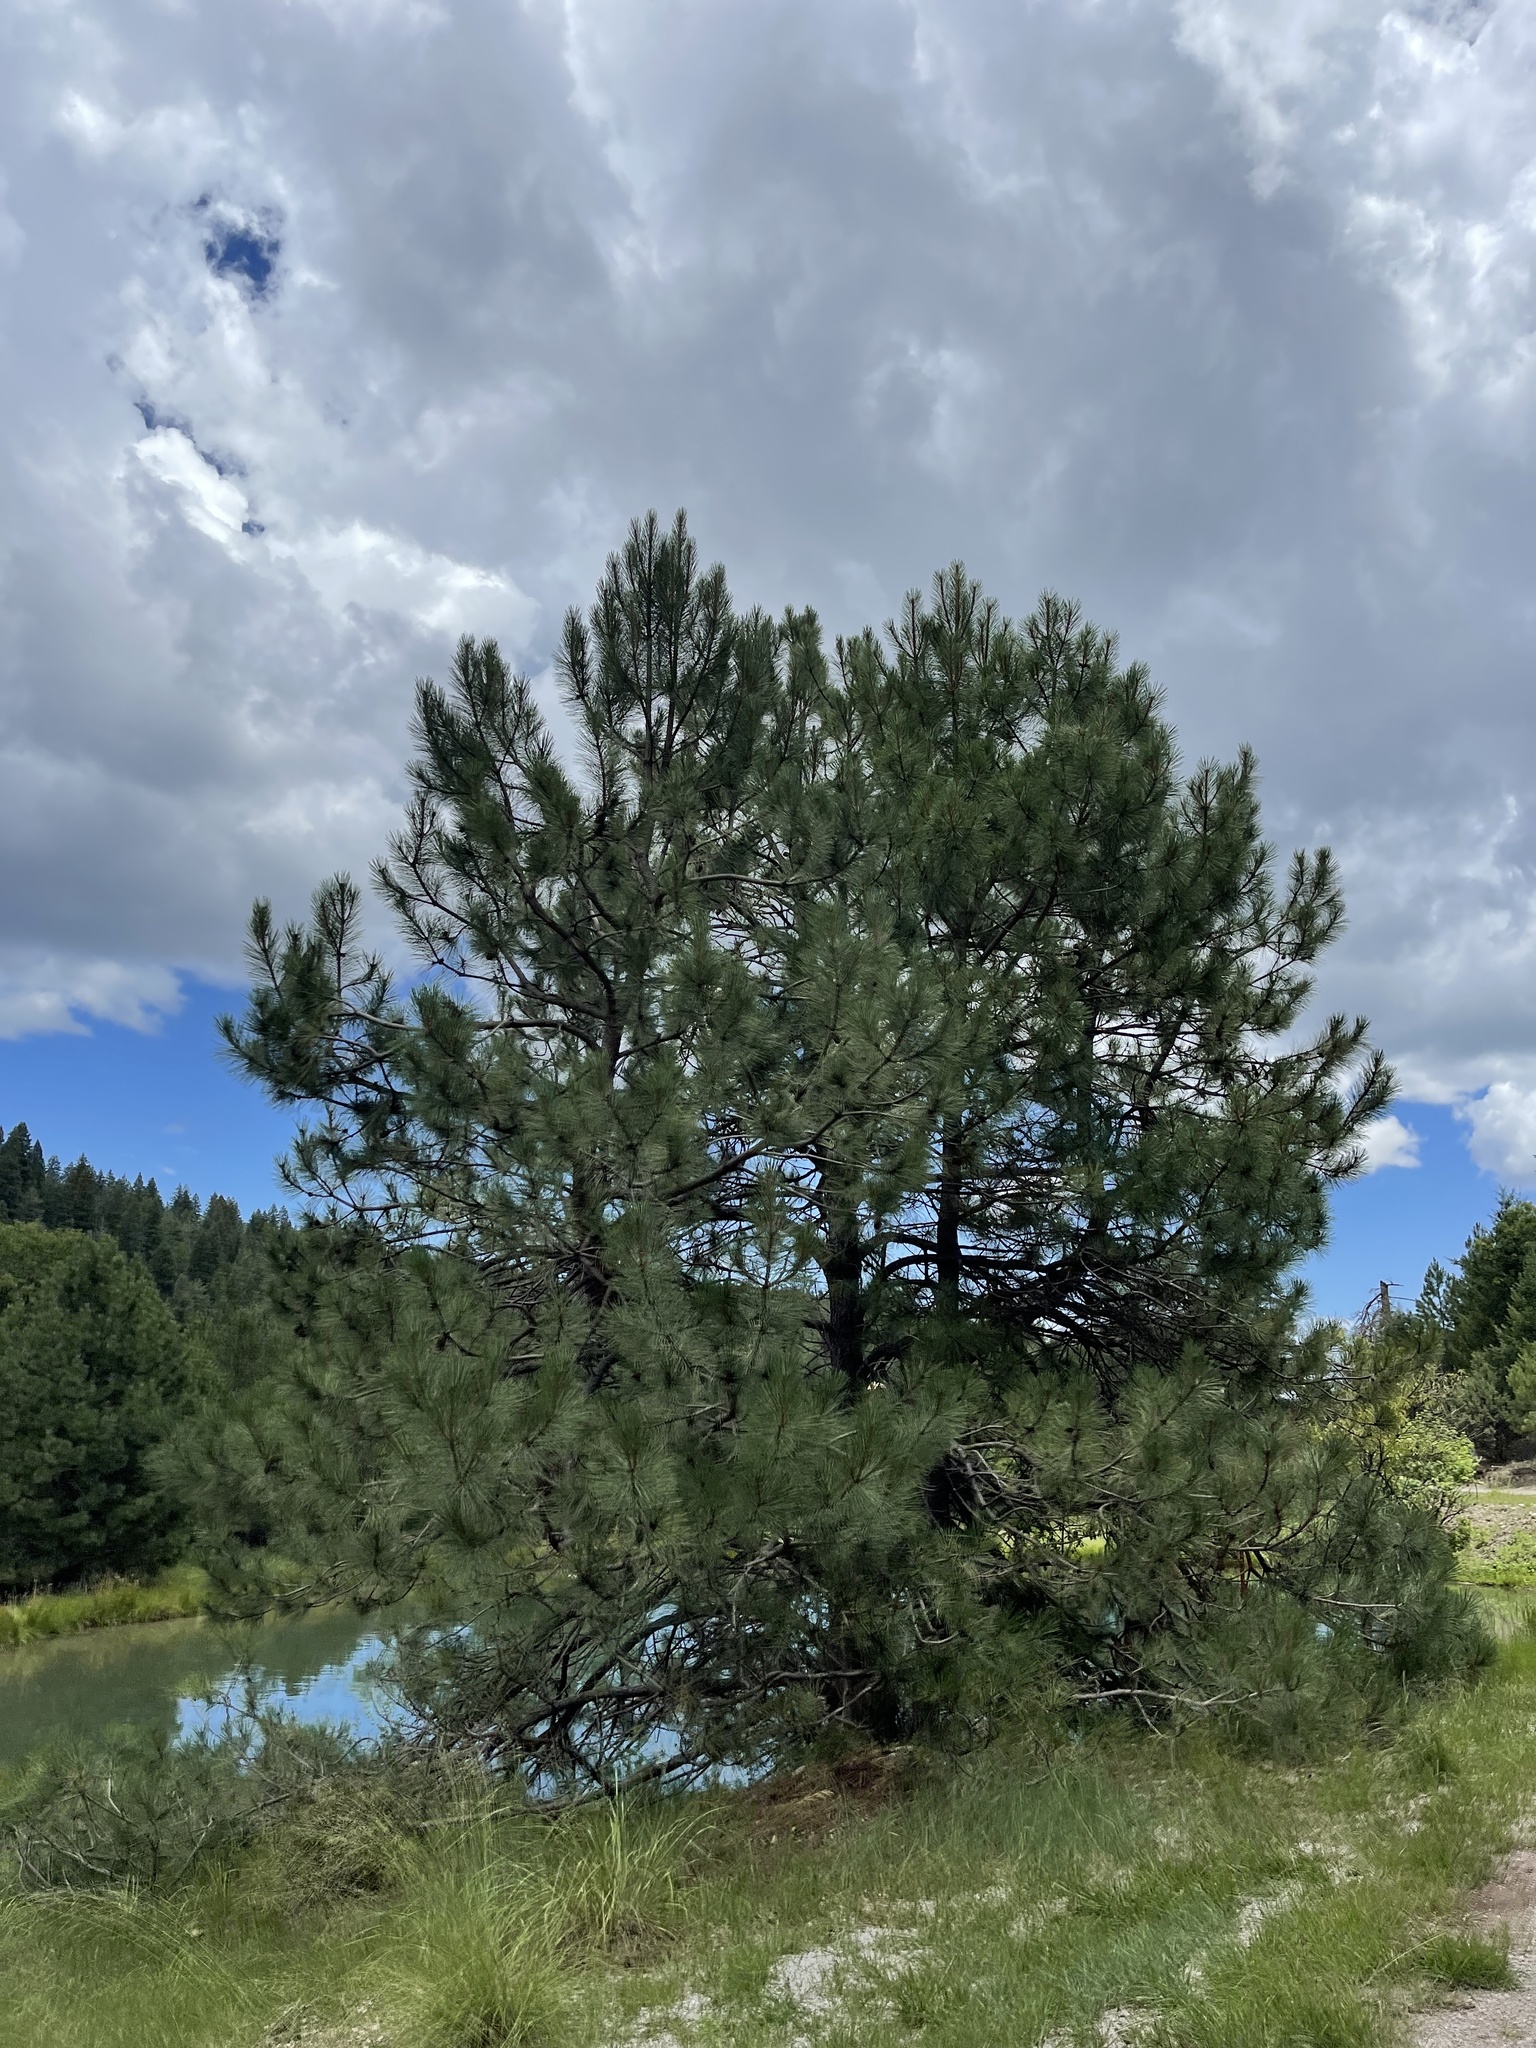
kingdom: Plantae
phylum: Tracheophyta
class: Pinopsida
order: Pinales
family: Pinaceae
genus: Pinus
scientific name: Pinus ponderosa
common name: Western yellow-pine
